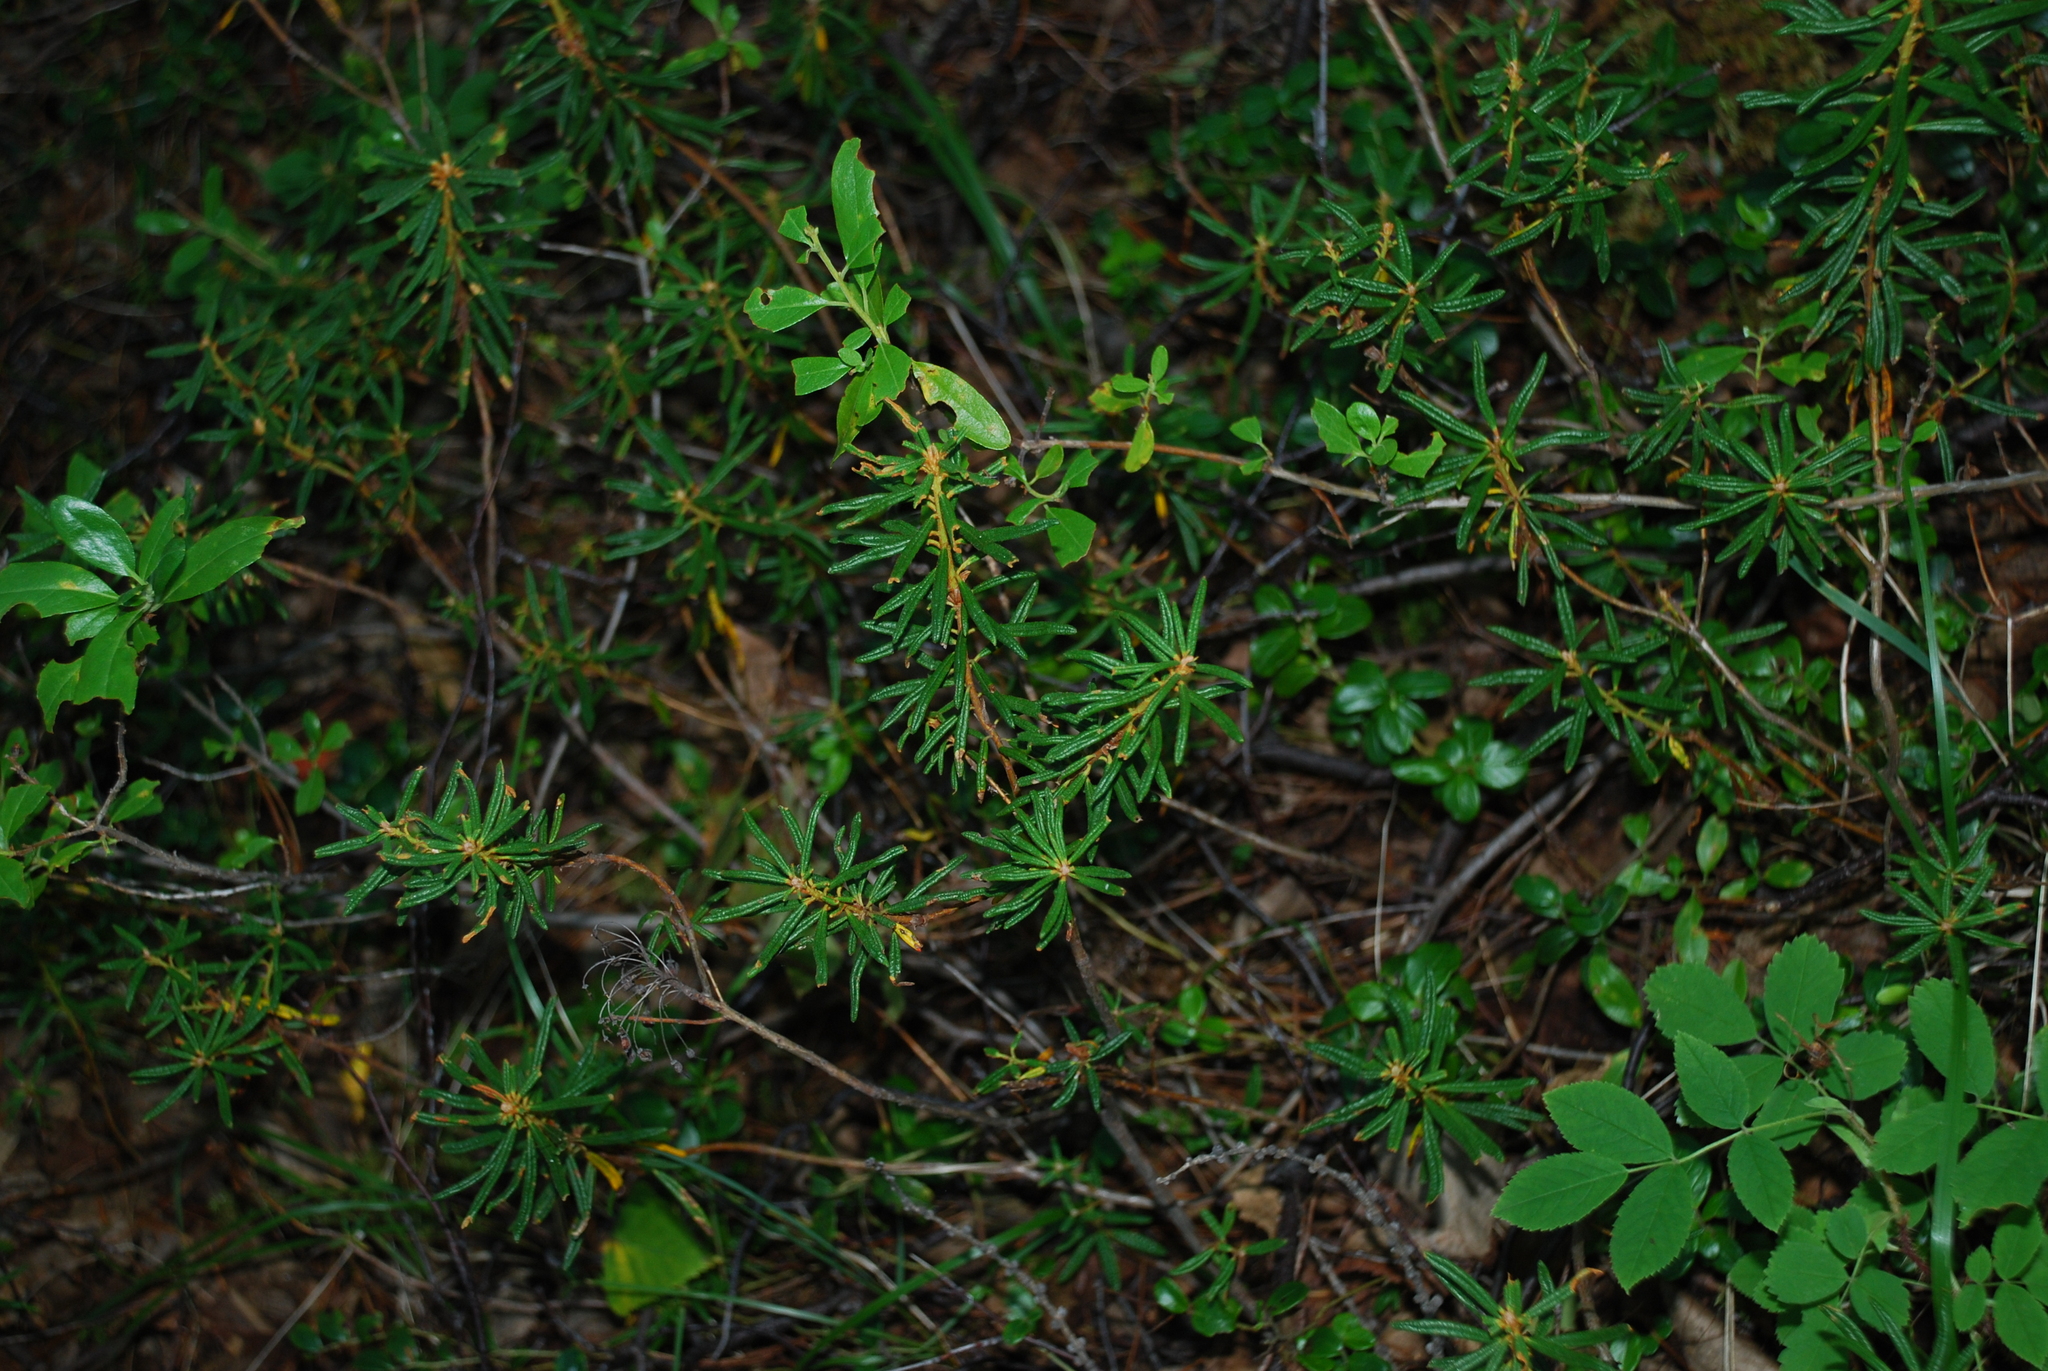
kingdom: Plantae
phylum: Tracheophyta
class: Magnoliopsida
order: Ericales
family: Ericaceae
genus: Rhododendron
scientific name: Rhododendron tomentosum
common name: Marsh labrador tea
